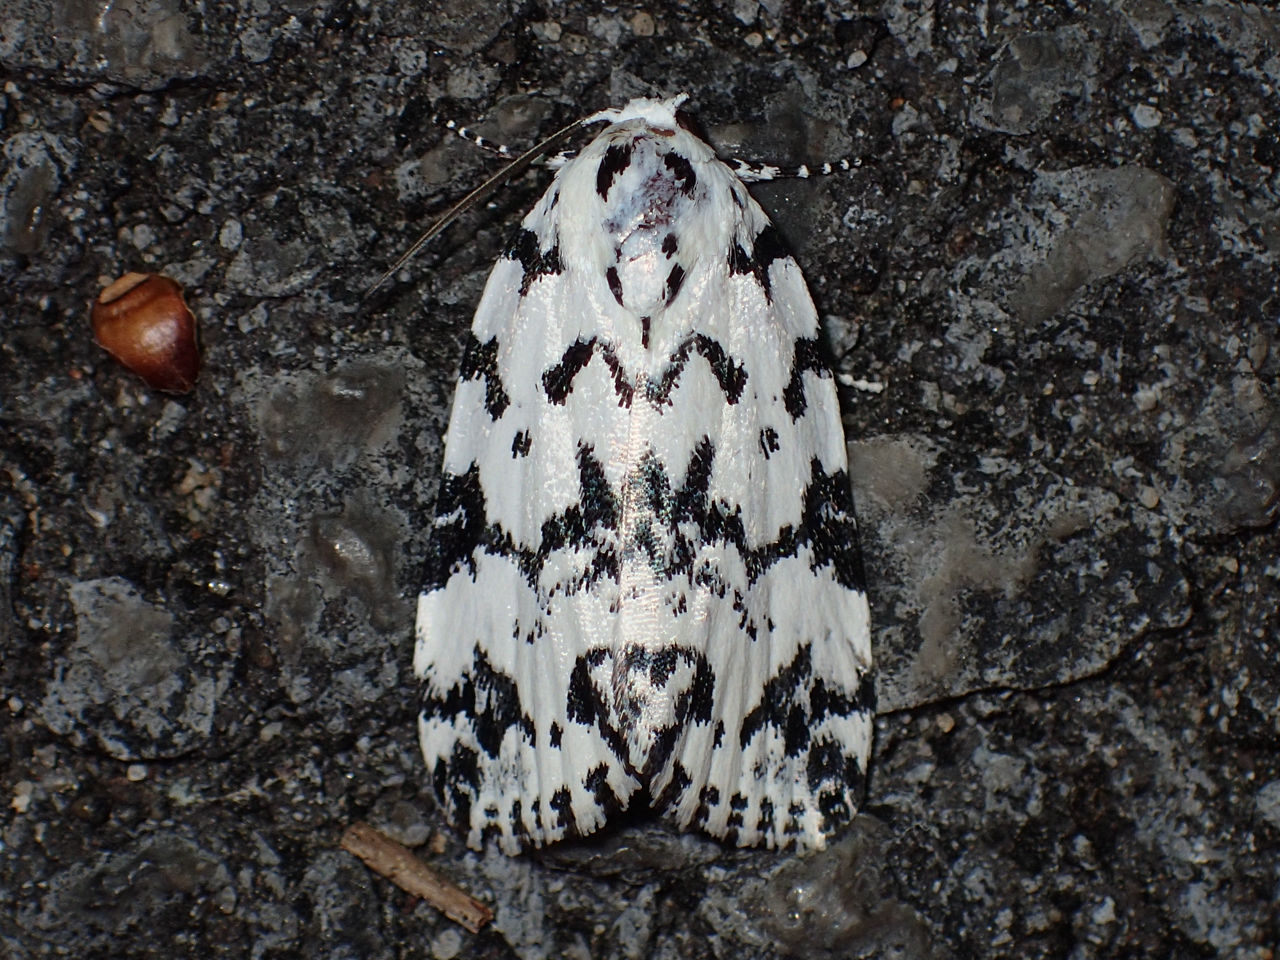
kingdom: Animalia
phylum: Arthropoda
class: Insecta
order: Lepidoptera
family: Noctuidae
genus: Polygrammate
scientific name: Polygrammate hebraeicum
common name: Hebrew moth
